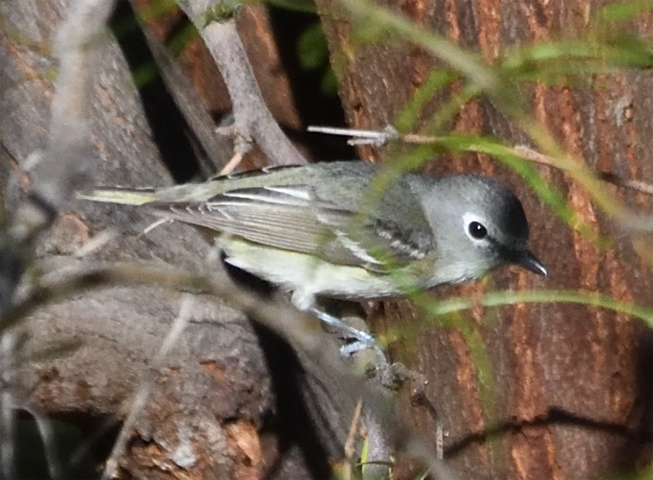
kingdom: Animalia
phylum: Chordata
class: Aves
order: Passeriformes
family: Vireonidae
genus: Vireo
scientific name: Vireo cassinii
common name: Cassin's vireo
